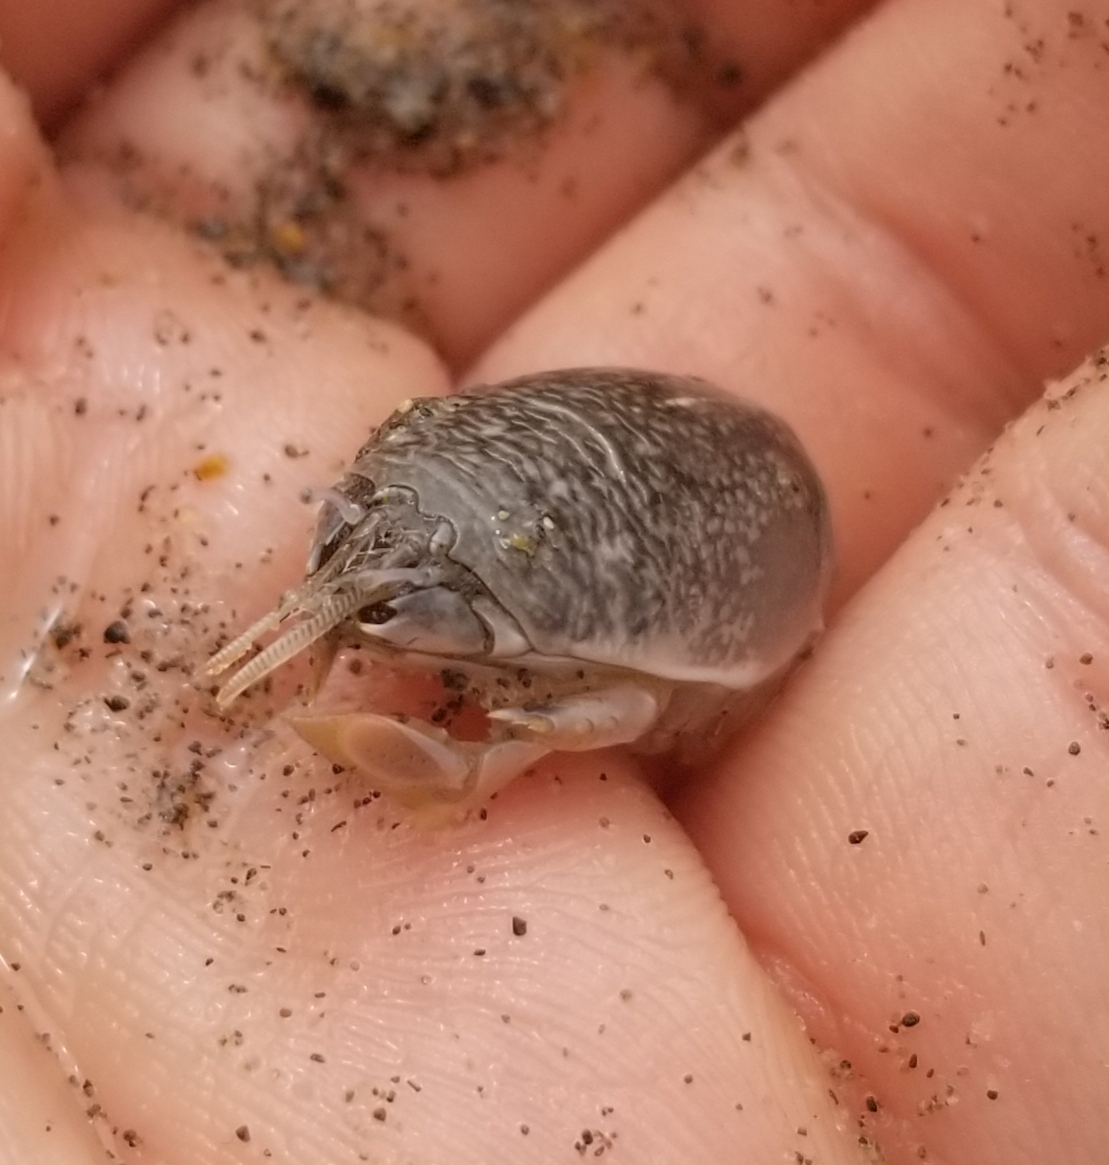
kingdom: Animalia
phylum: Arthropoda
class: Malacostraca
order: Decapoda
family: Hippidae
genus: Emerita
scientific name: Emerita analoga
